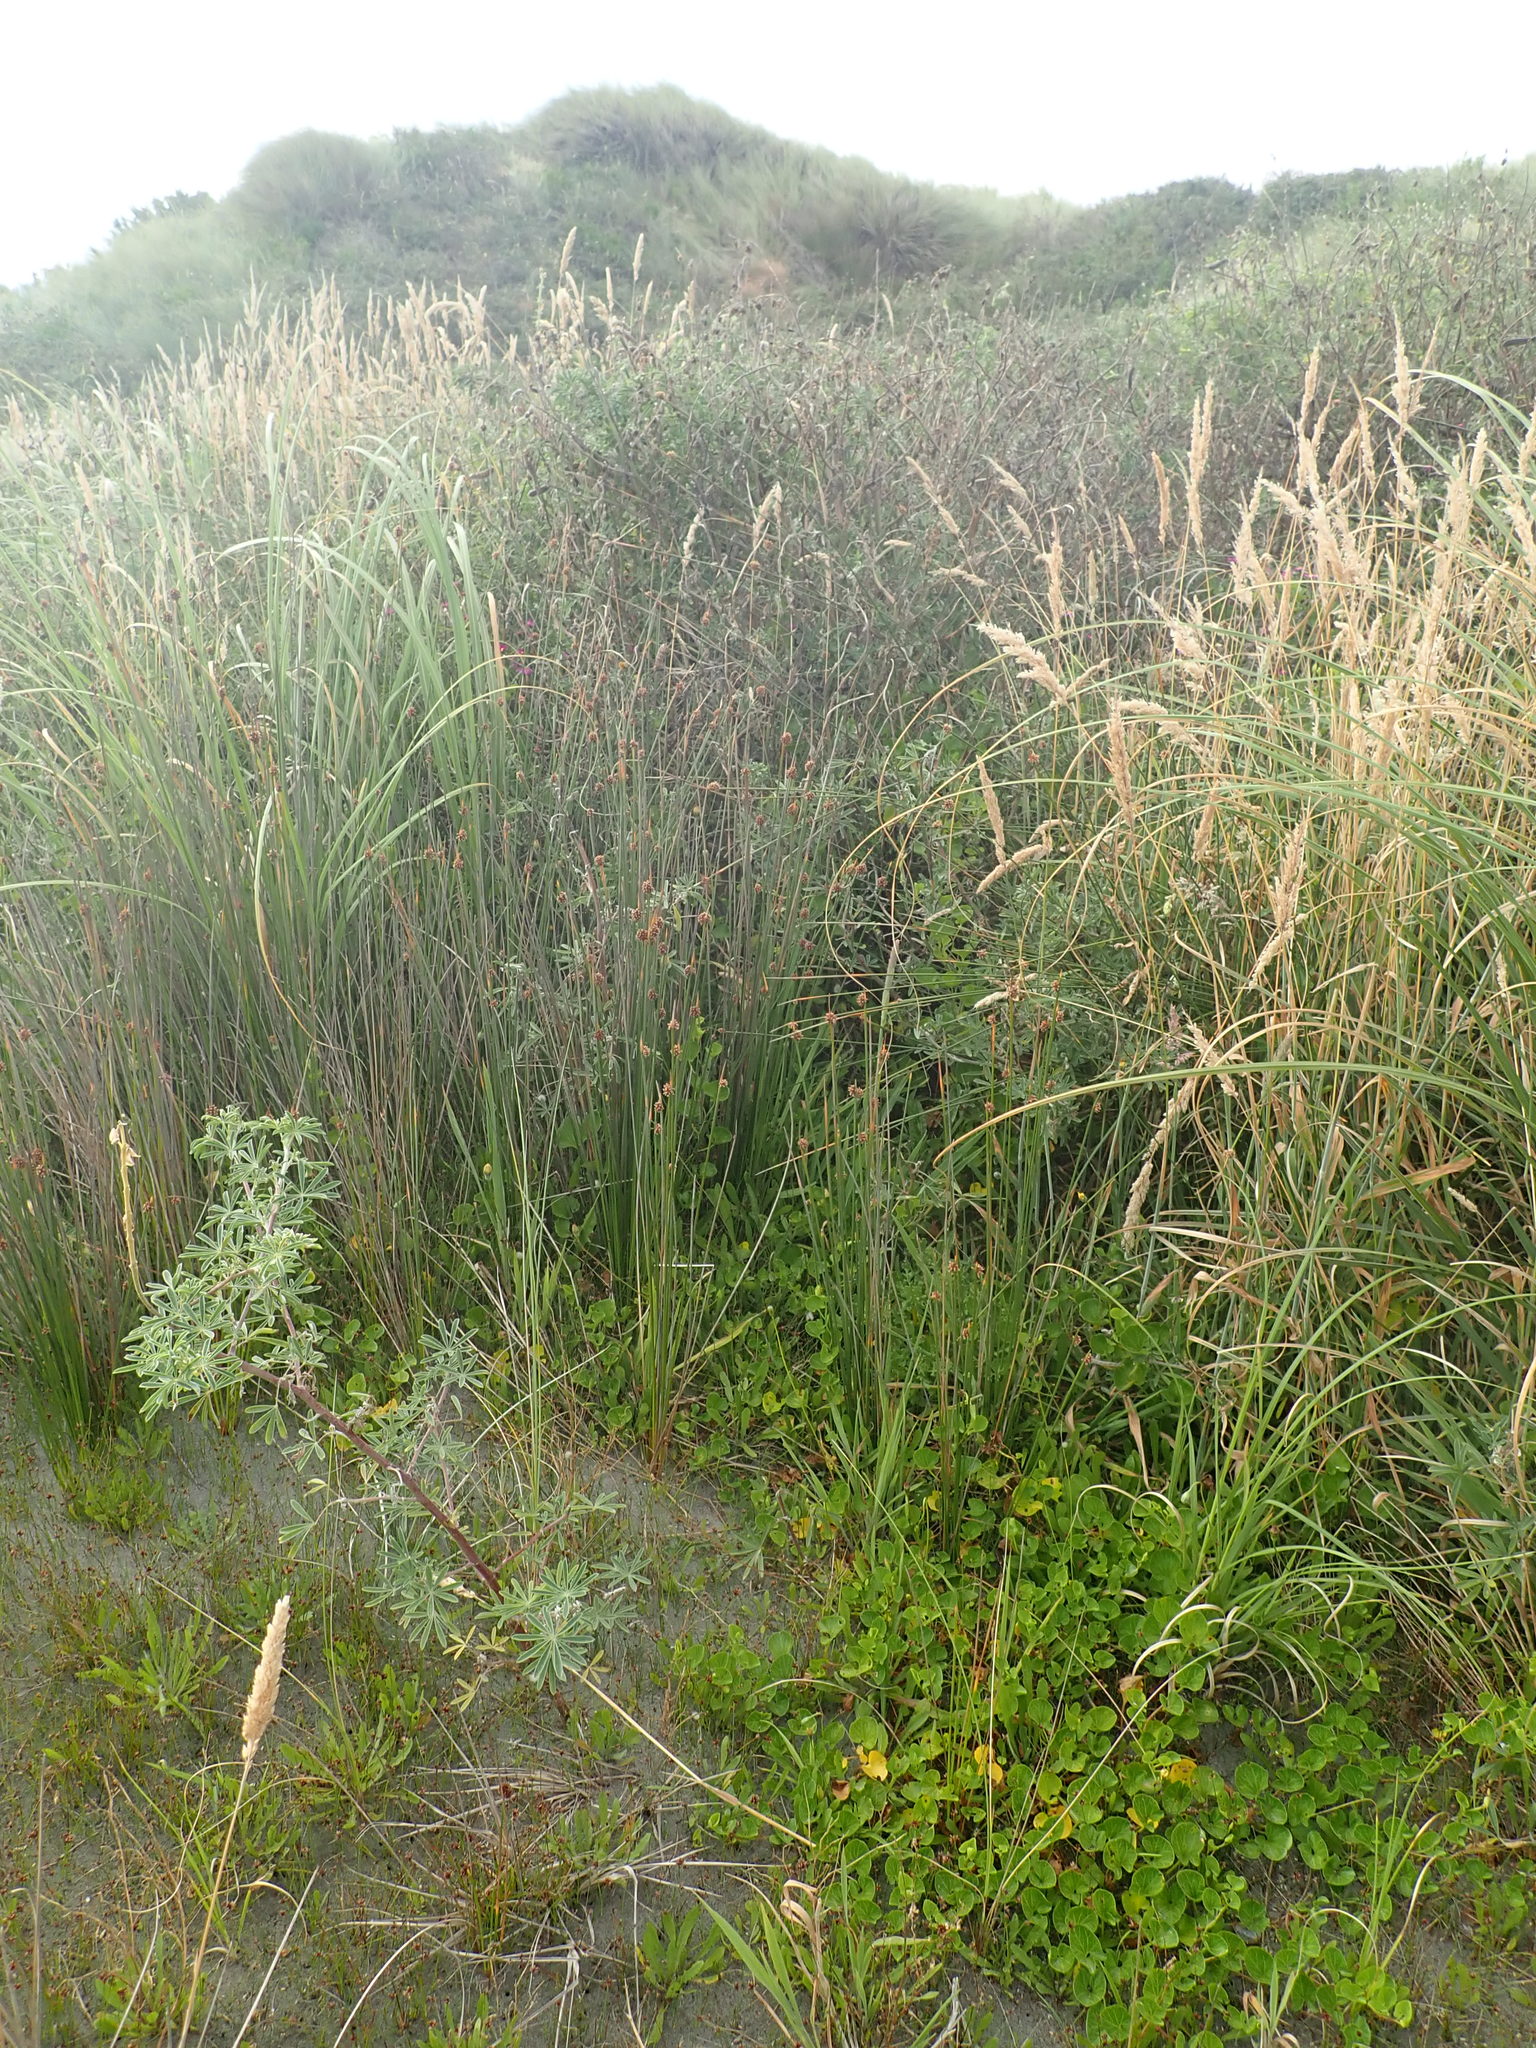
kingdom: Plantae
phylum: Tracheophyta
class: Magnoliopsida
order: Fabales
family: Fabaceae
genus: Lupinus
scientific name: Lupinus arboreus
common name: Yellow bush lupine
